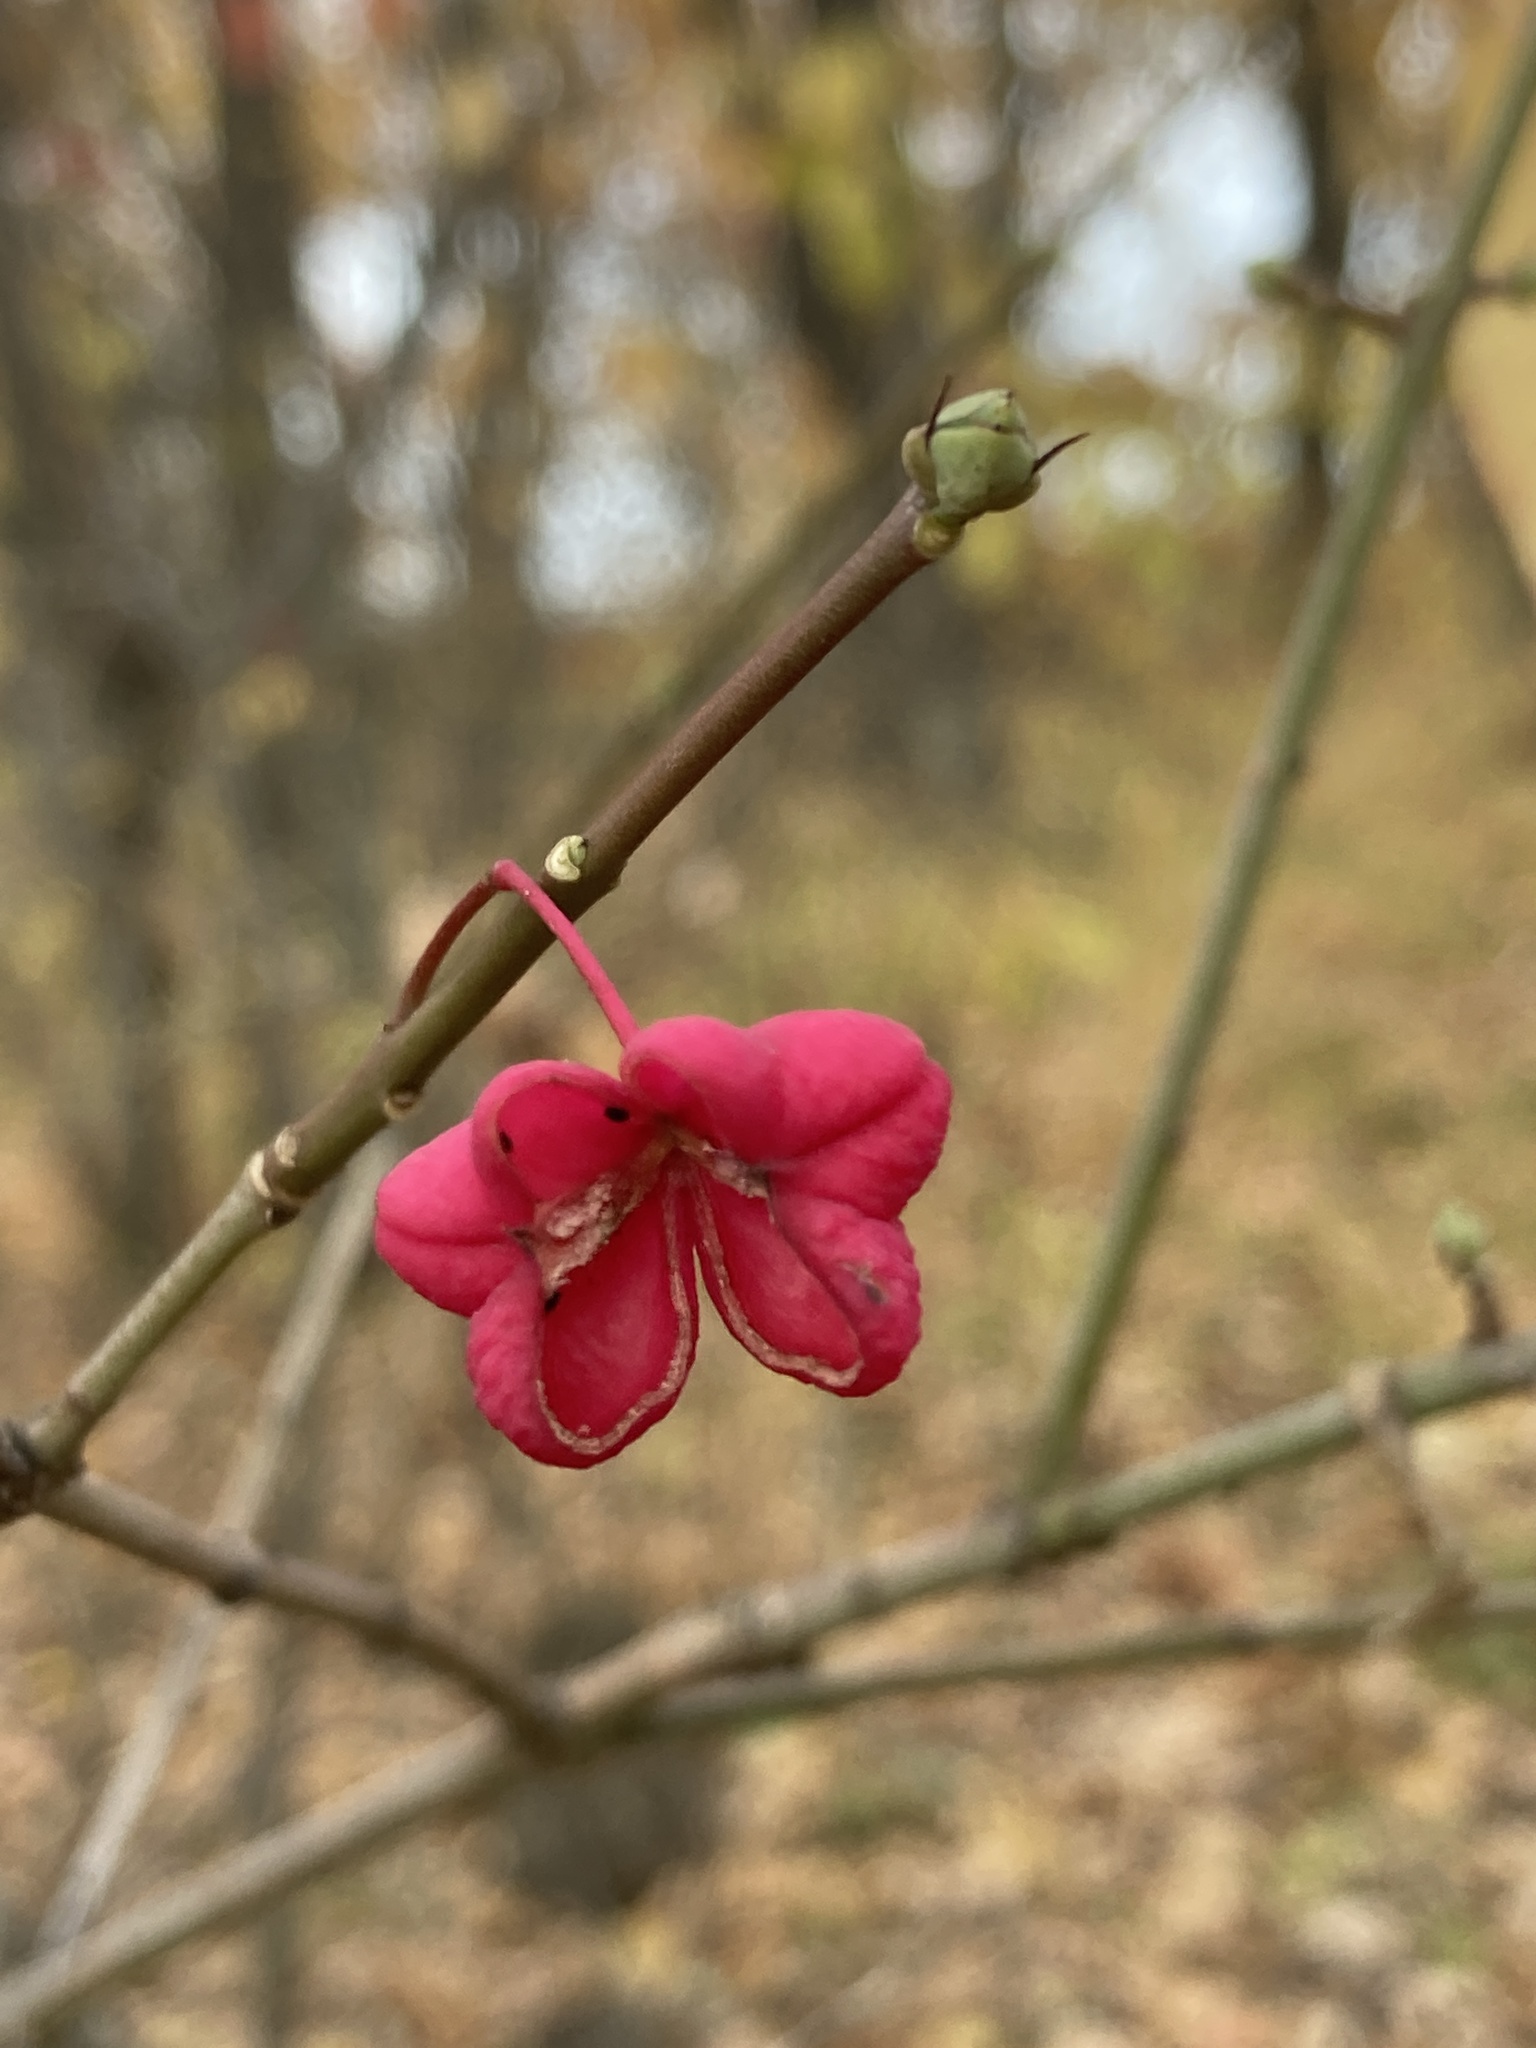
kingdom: Plantae
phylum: Tracheophyta
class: Magnoliopsida
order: Celastrales
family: Celastraceae
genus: Euonymus
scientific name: Euonymus europaeus
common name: Spindle
